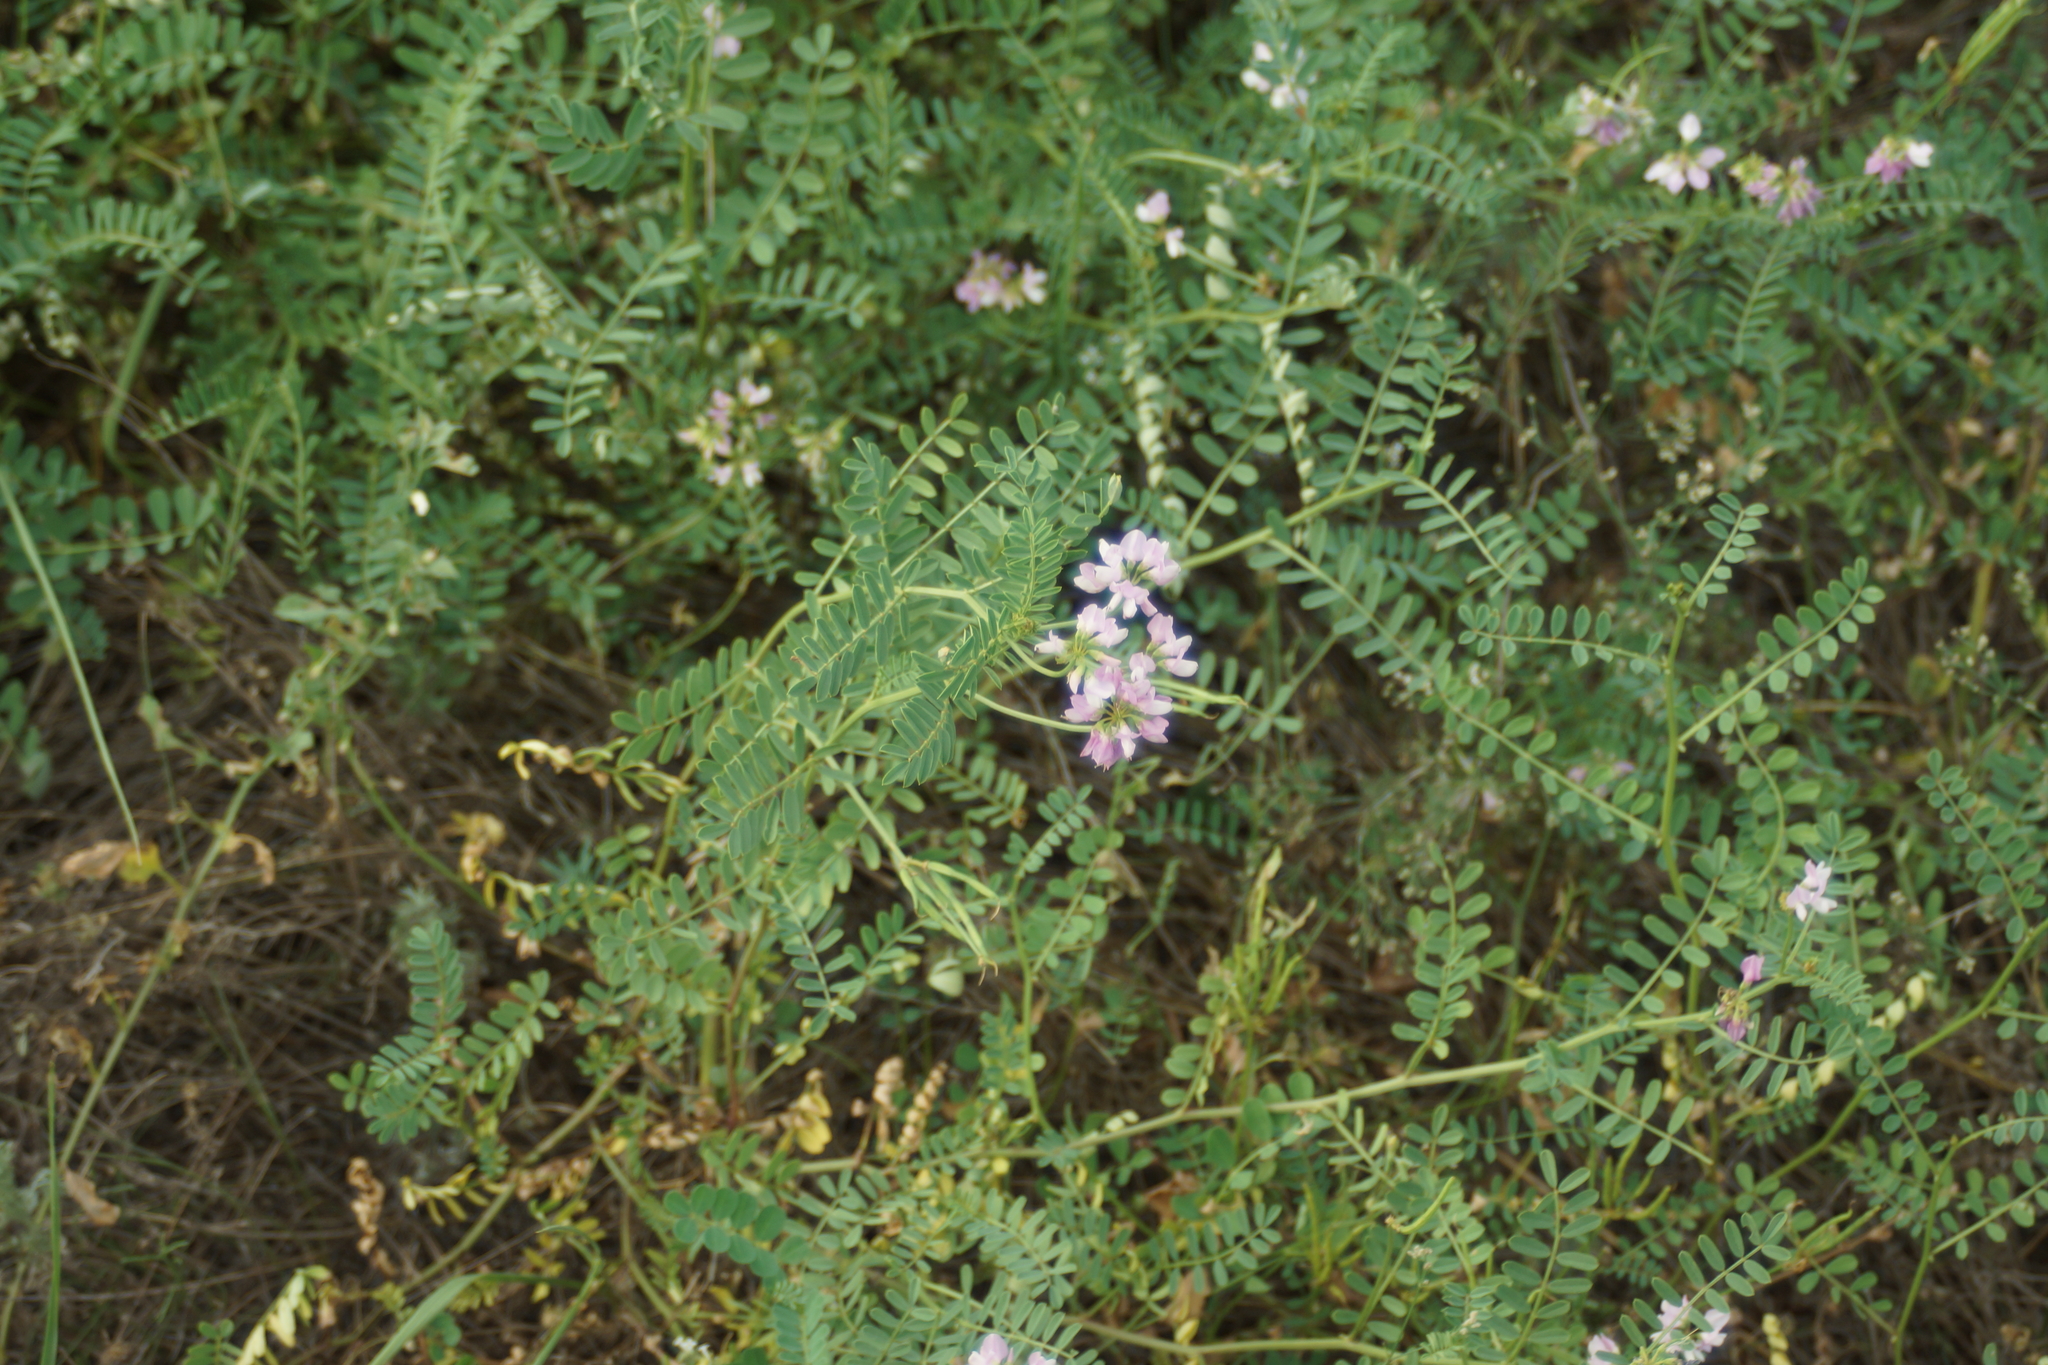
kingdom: Plantae
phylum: Tracheophyta
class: Magnoliopsida
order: Fabales
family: Fabaceae
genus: Coronilla
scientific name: Coronilla varia
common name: Crownvetch
